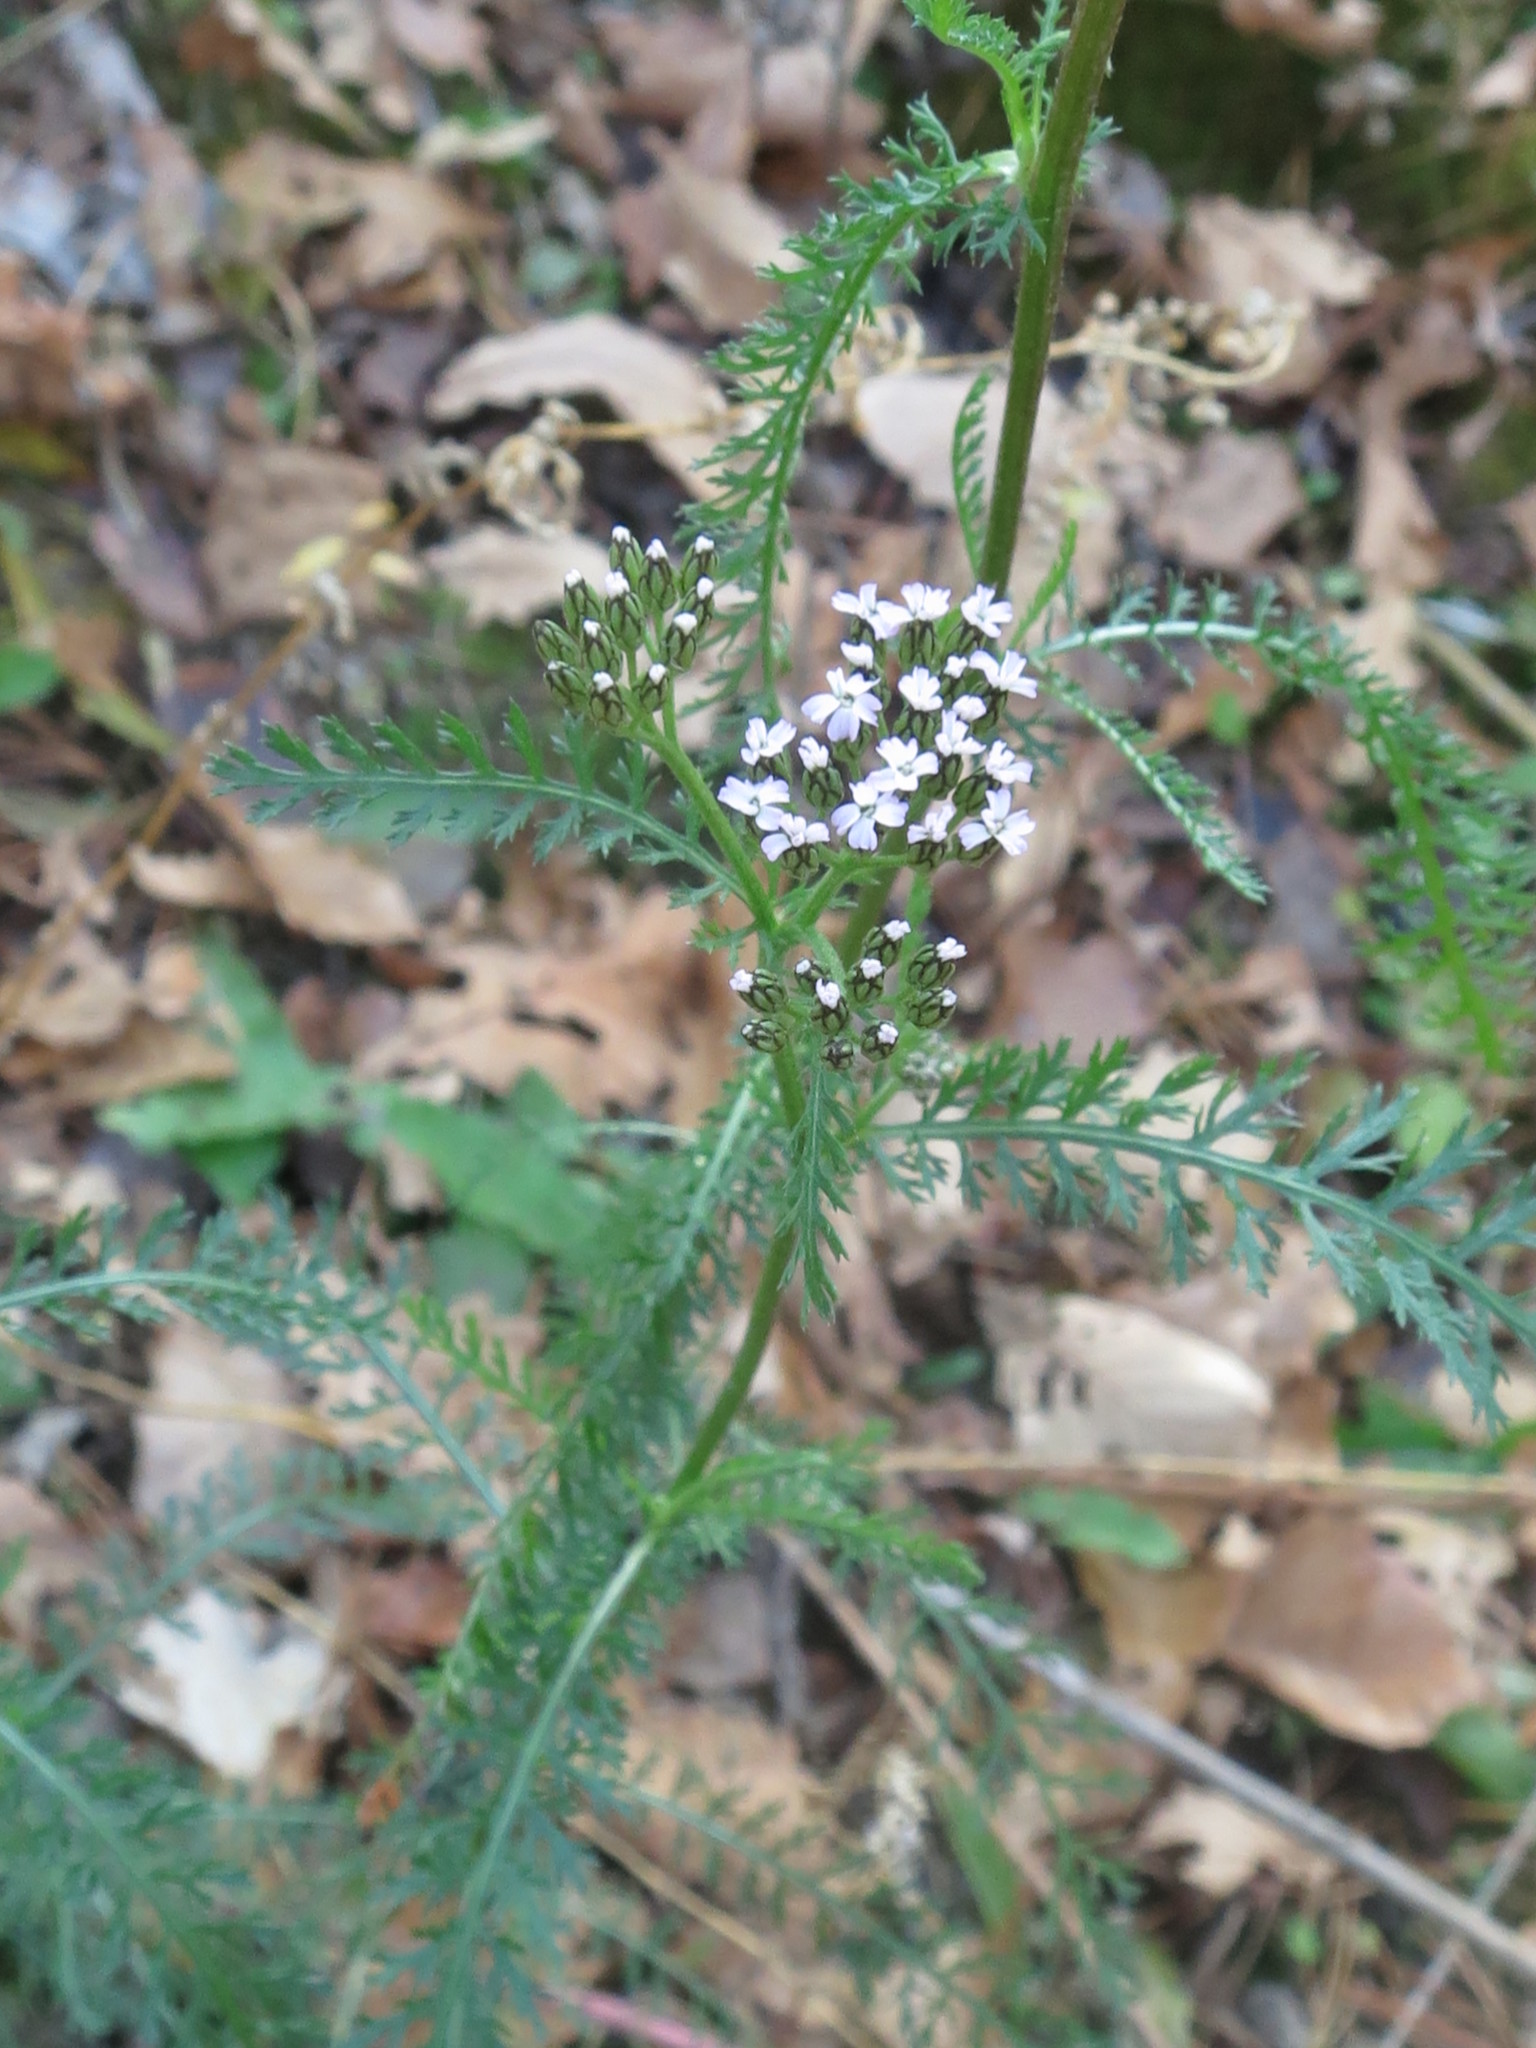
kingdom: Plantae
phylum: Tracheophyta
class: Magnoliopsida
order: Asterales
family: Asteraceae
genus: Achillea
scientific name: Achillea millefolium
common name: Yarrow
